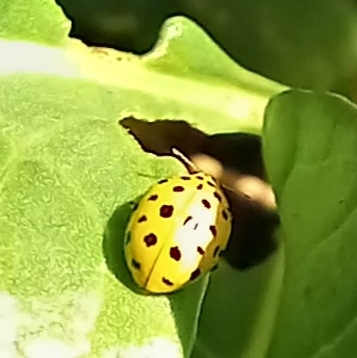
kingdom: Animalia
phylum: Arthropoda
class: Insecta
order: Coleoptera
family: Coccinellidae
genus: Psyllobora
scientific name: Psyllobora vigintiduopunctata
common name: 22-spot ladybird
